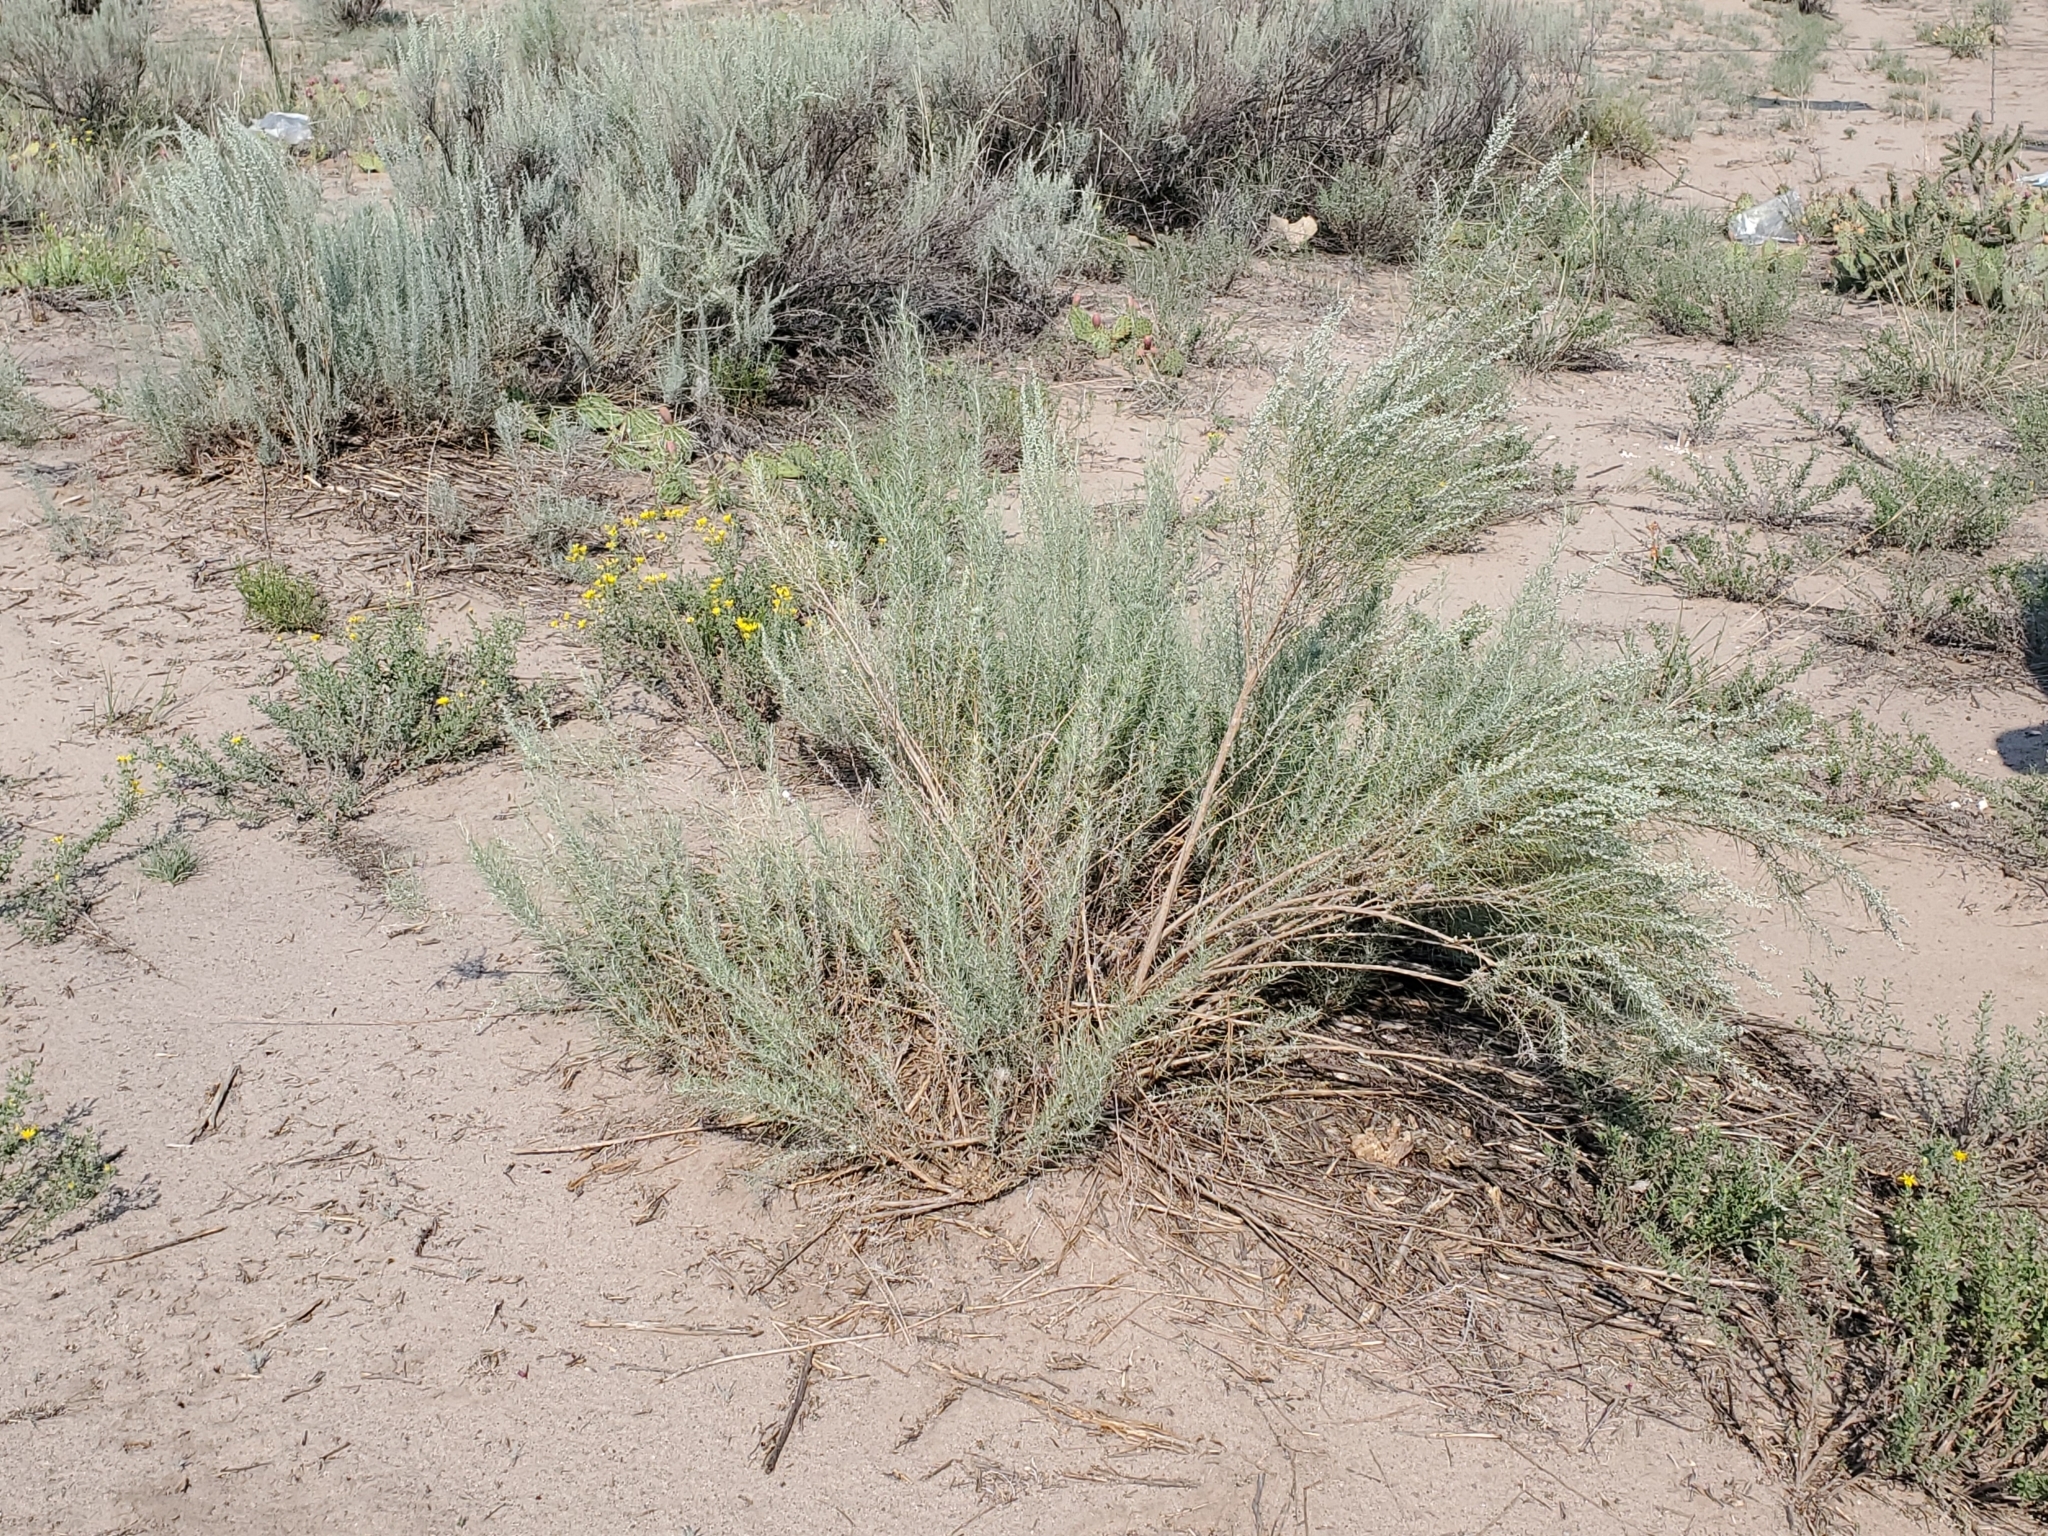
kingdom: Plantae
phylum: Tracheophyta
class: Magnoliopsida
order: Asterales
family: Asteraceae
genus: Artemisia
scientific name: Artemisia filifolia
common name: Sand-sage
